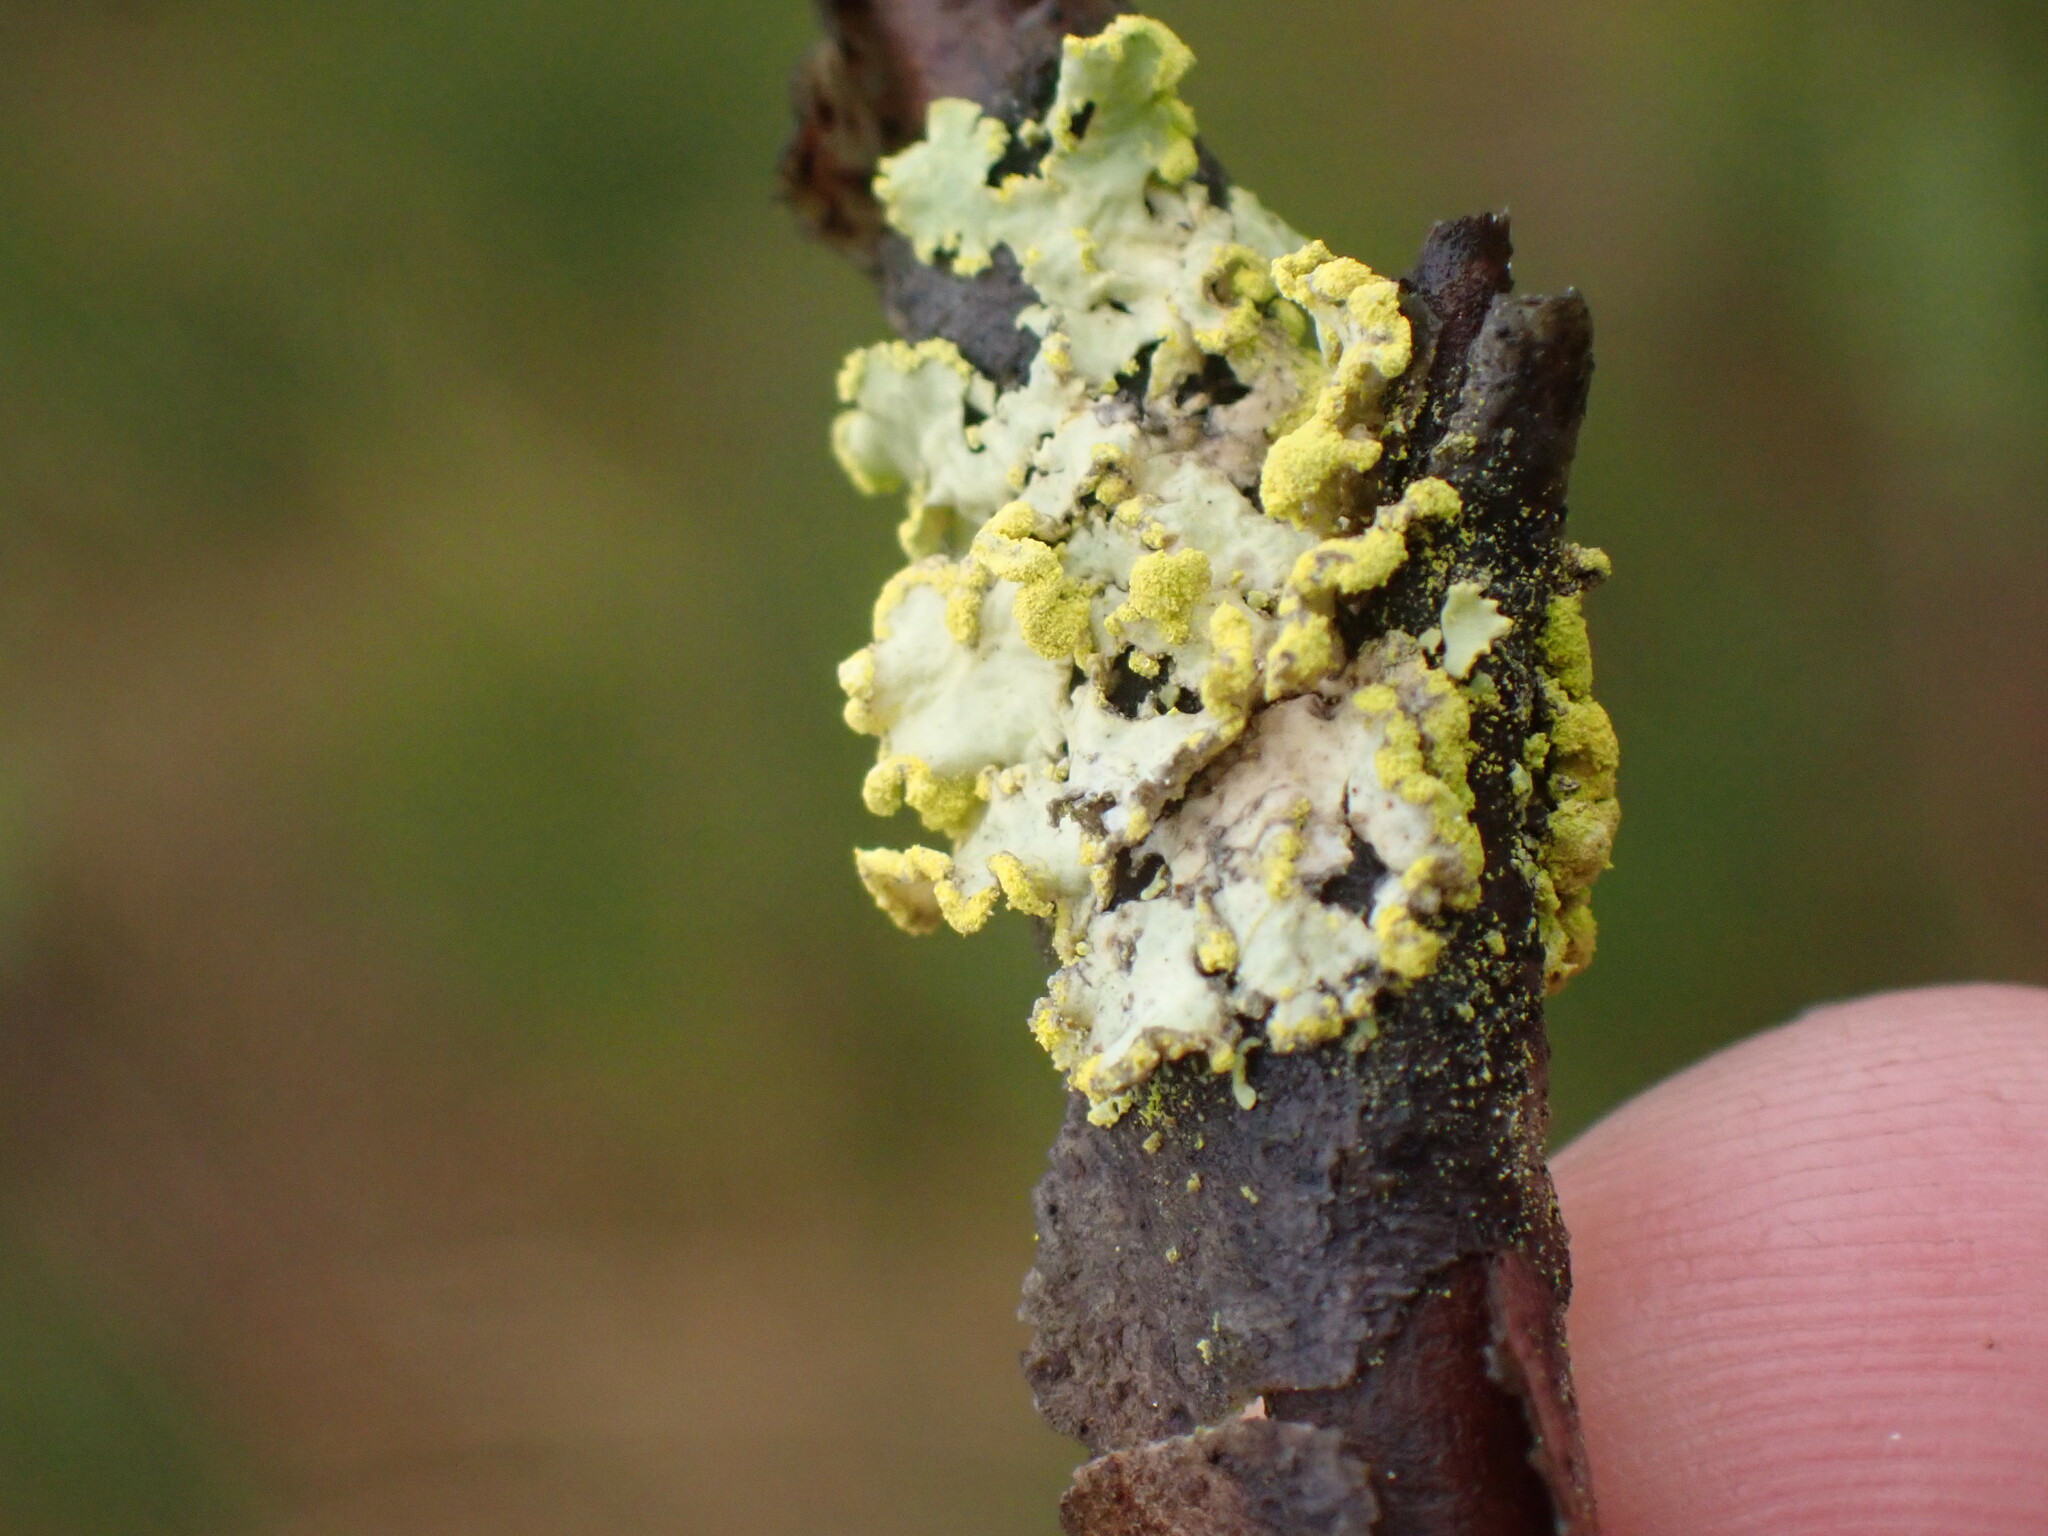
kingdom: Fungi
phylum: Ascomycota
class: Lecanoromycetes
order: Lecanorales
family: Parmeliaceae
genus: Vulpicida
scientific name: Vulpicida pinastri
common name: Powdered sunshine lichen
